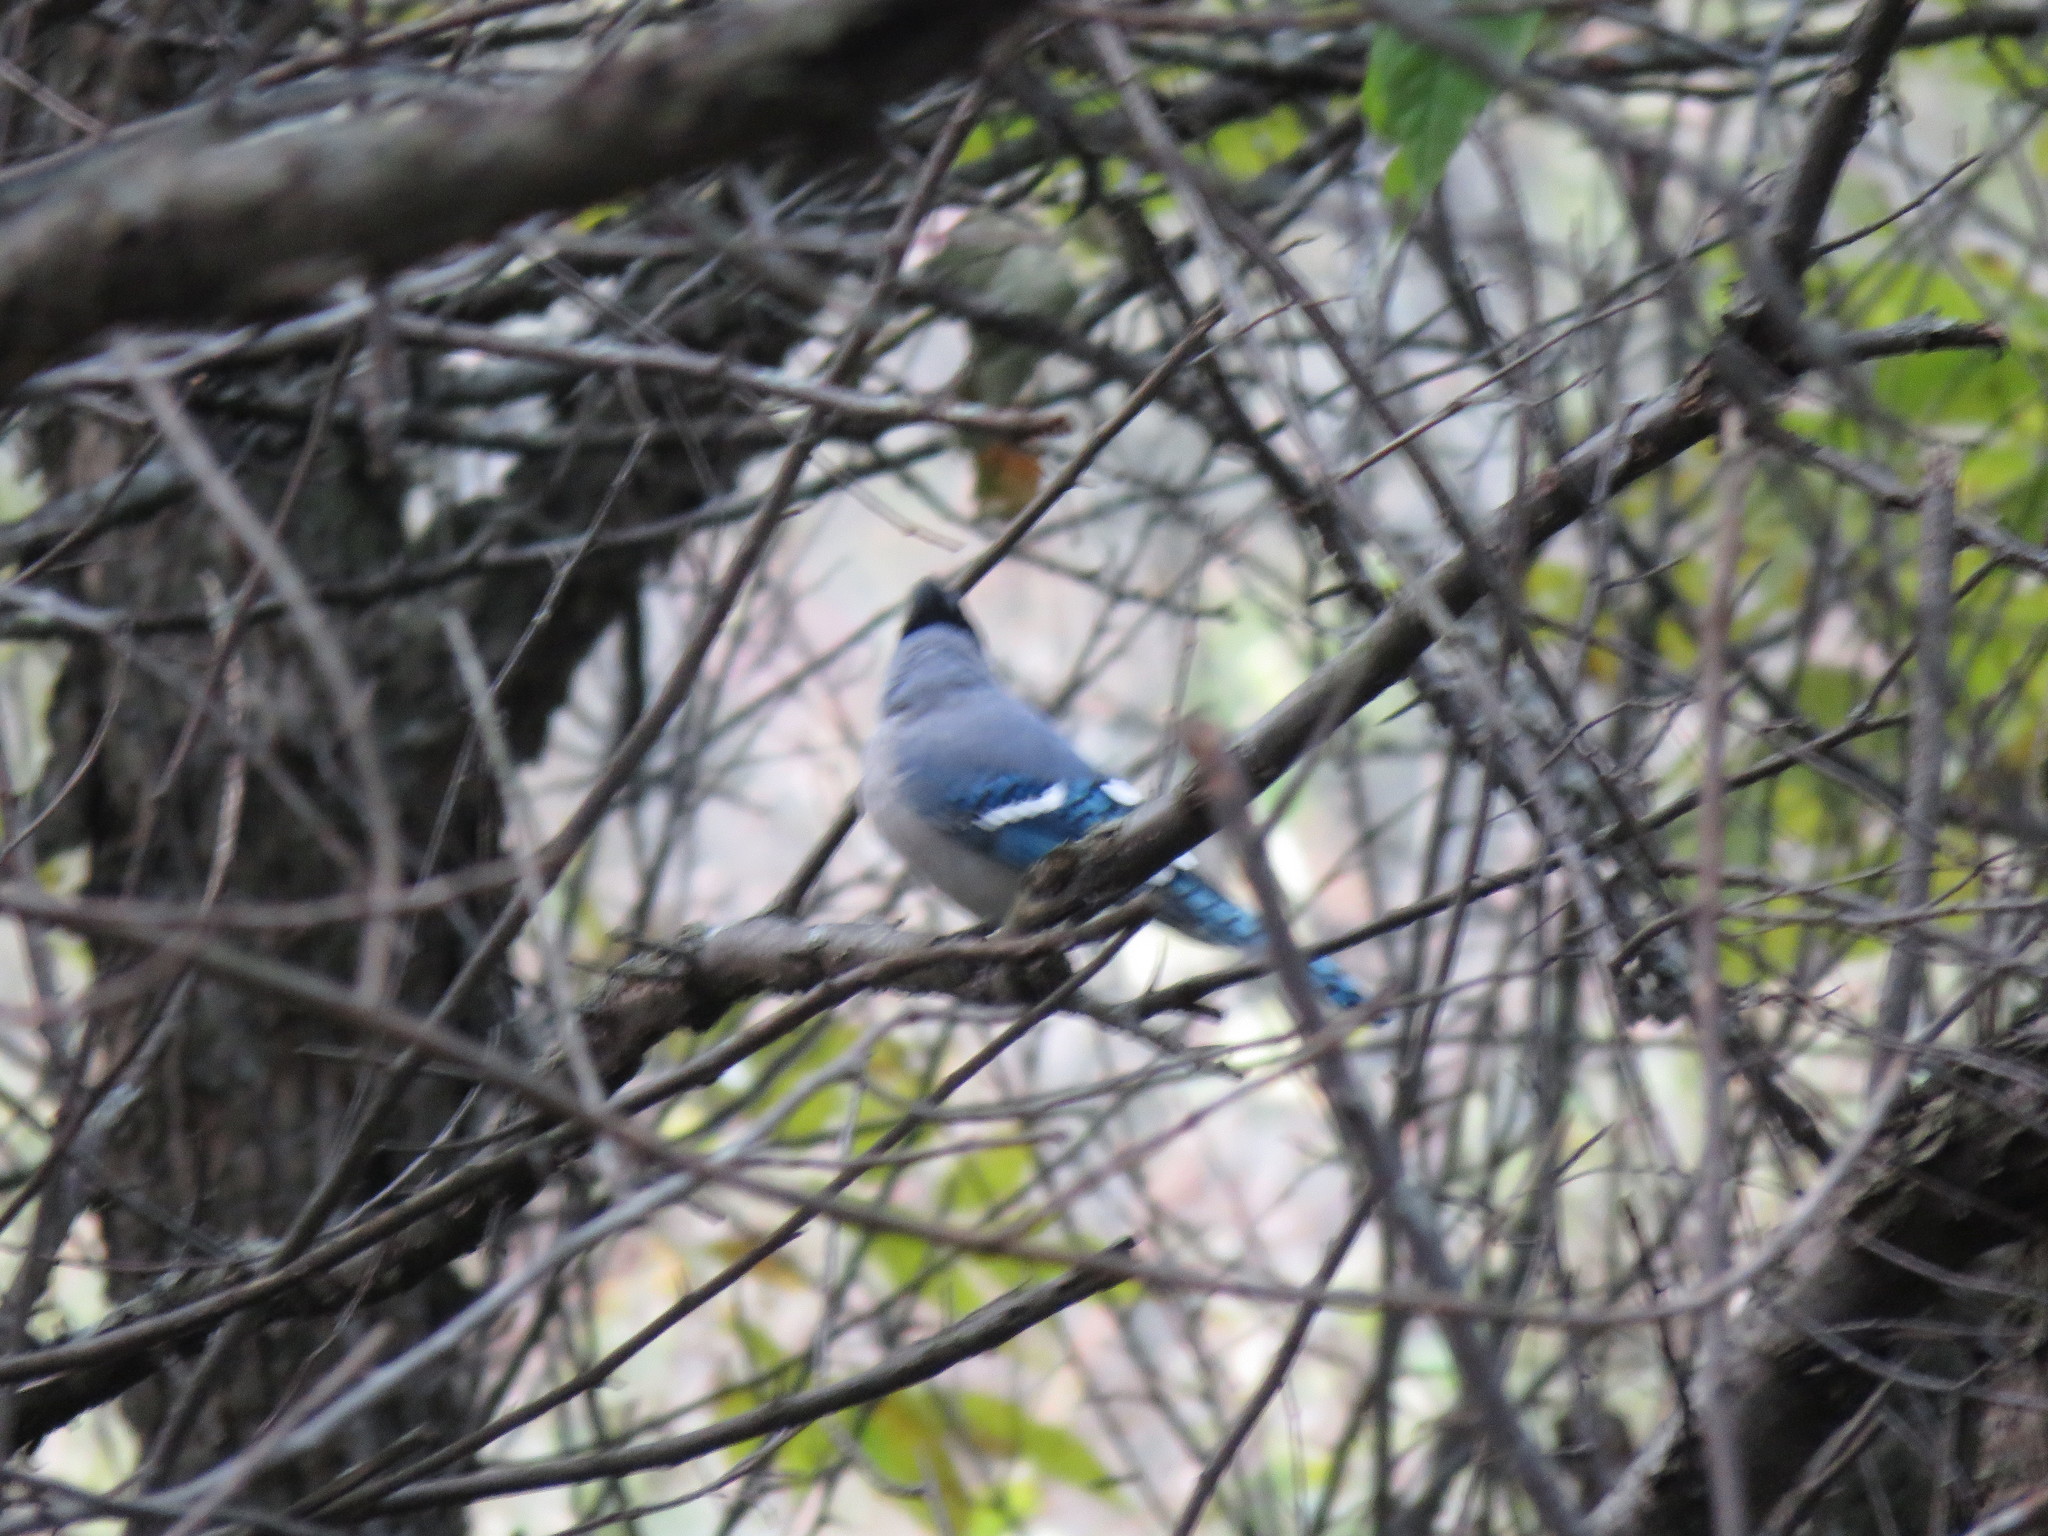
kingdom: Animalia
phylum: Chordata
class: Aves
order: Passeriformes
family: Corvidae
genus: Cyanocitta
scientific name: Cyanocitta cristata
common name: Blue jay
